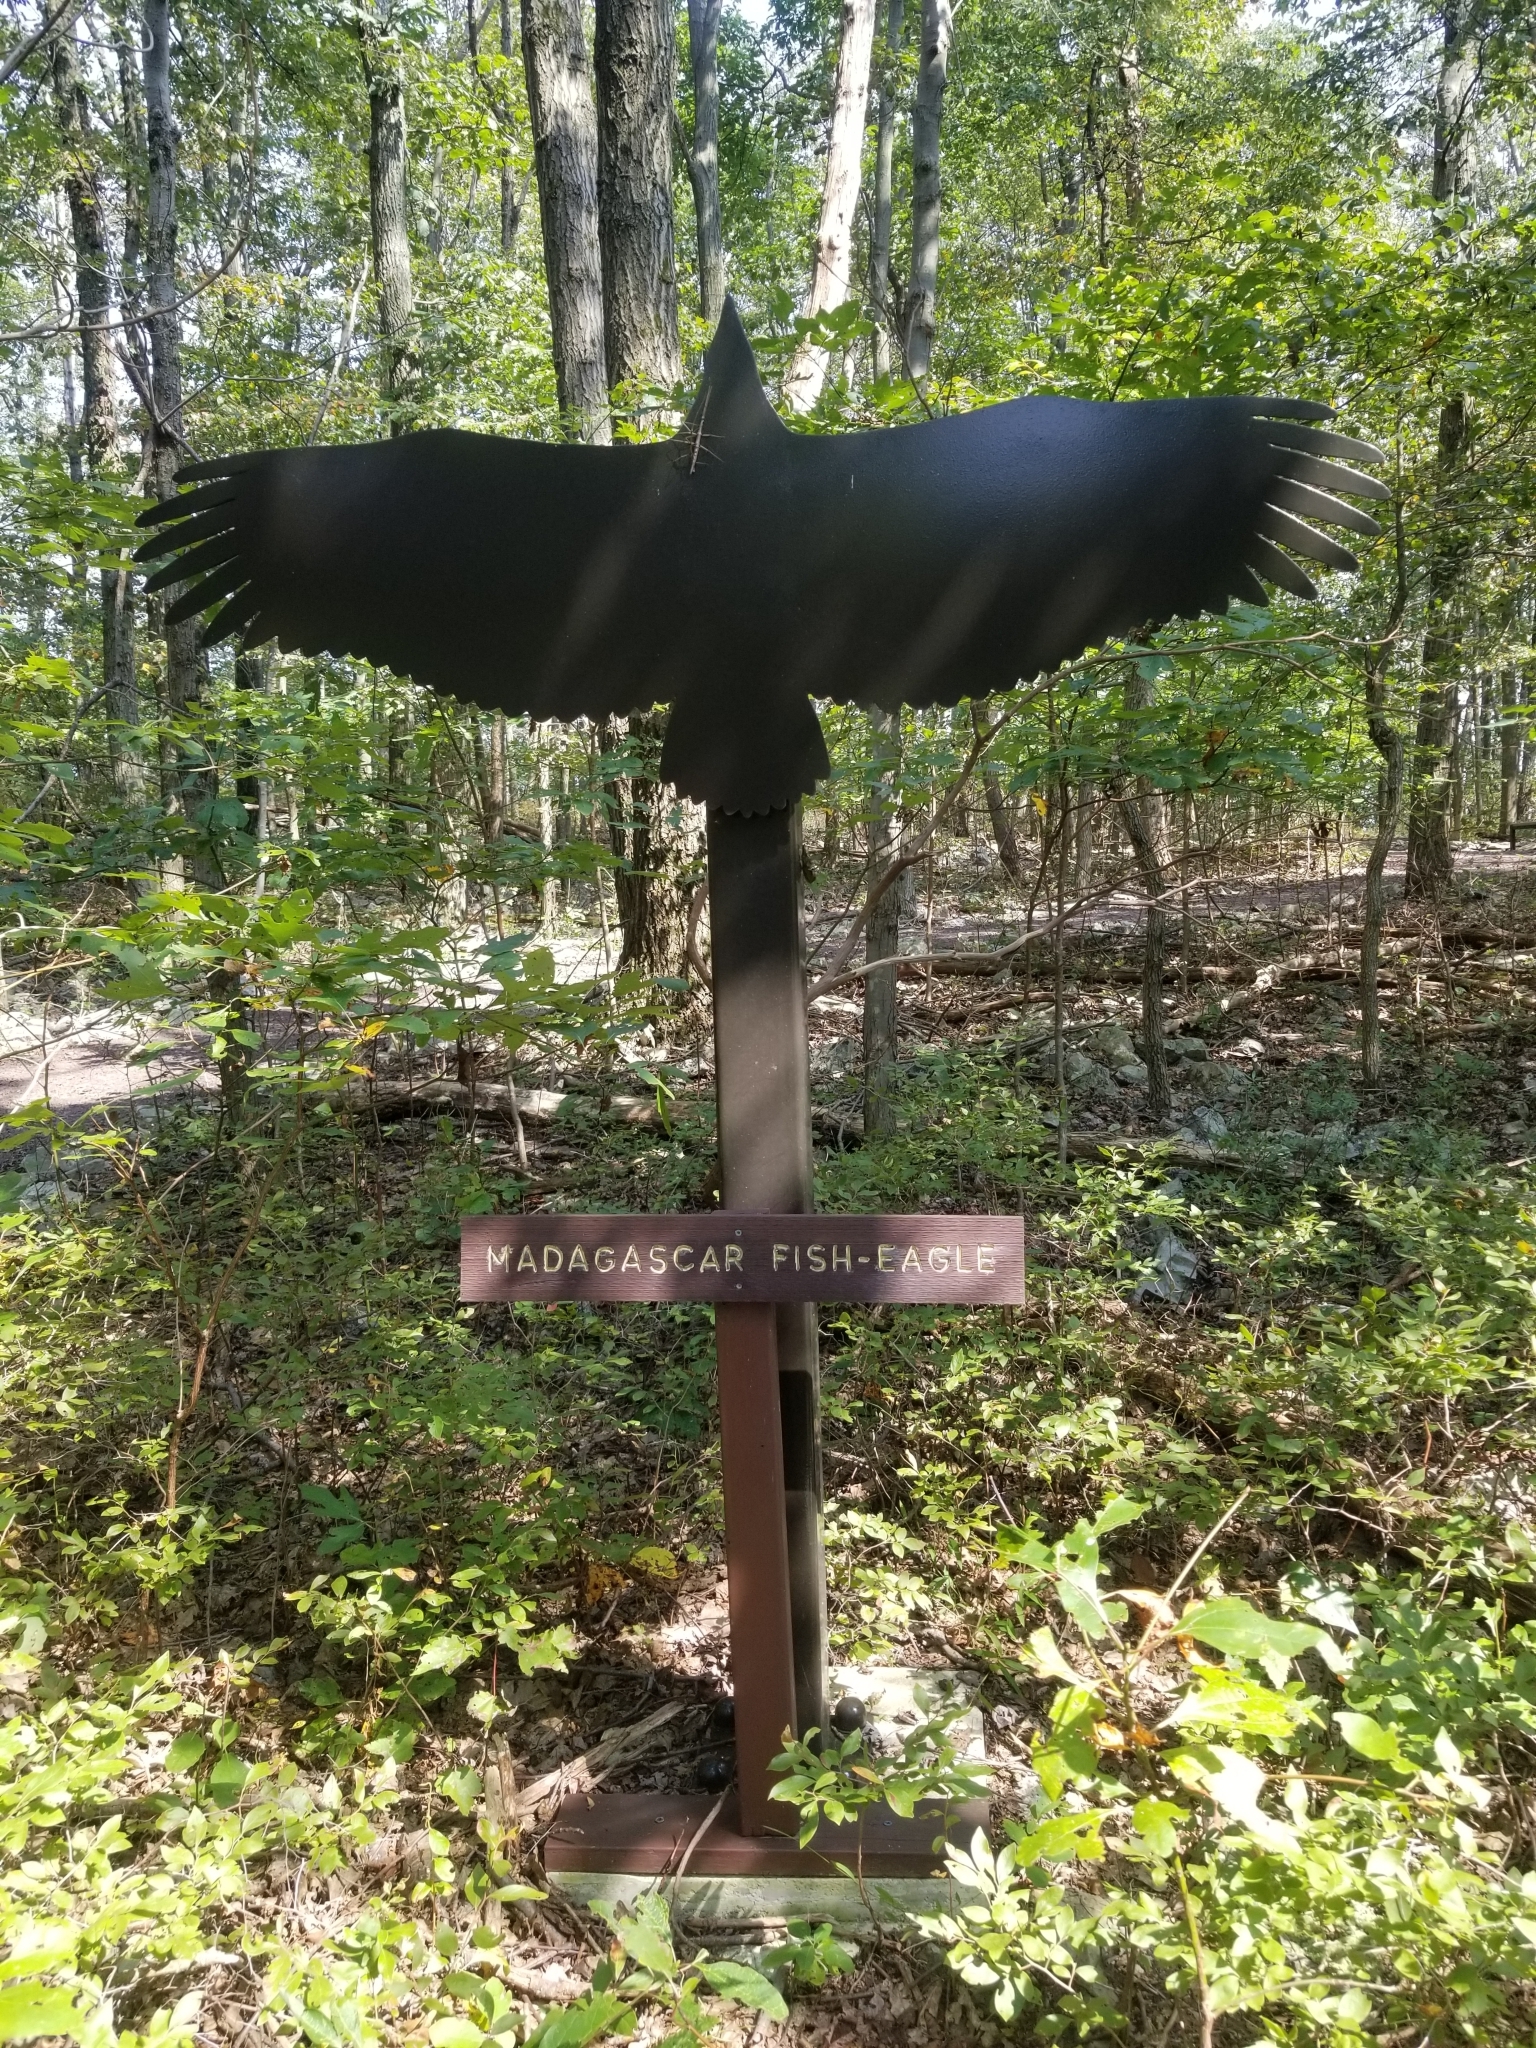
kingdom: Animalia
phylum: Arthropoda
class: Insecta
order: Phasmida
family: Diapheromeridae
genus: Diapheromera
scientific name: Diapheromera femorata
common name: Common american walkingstick
